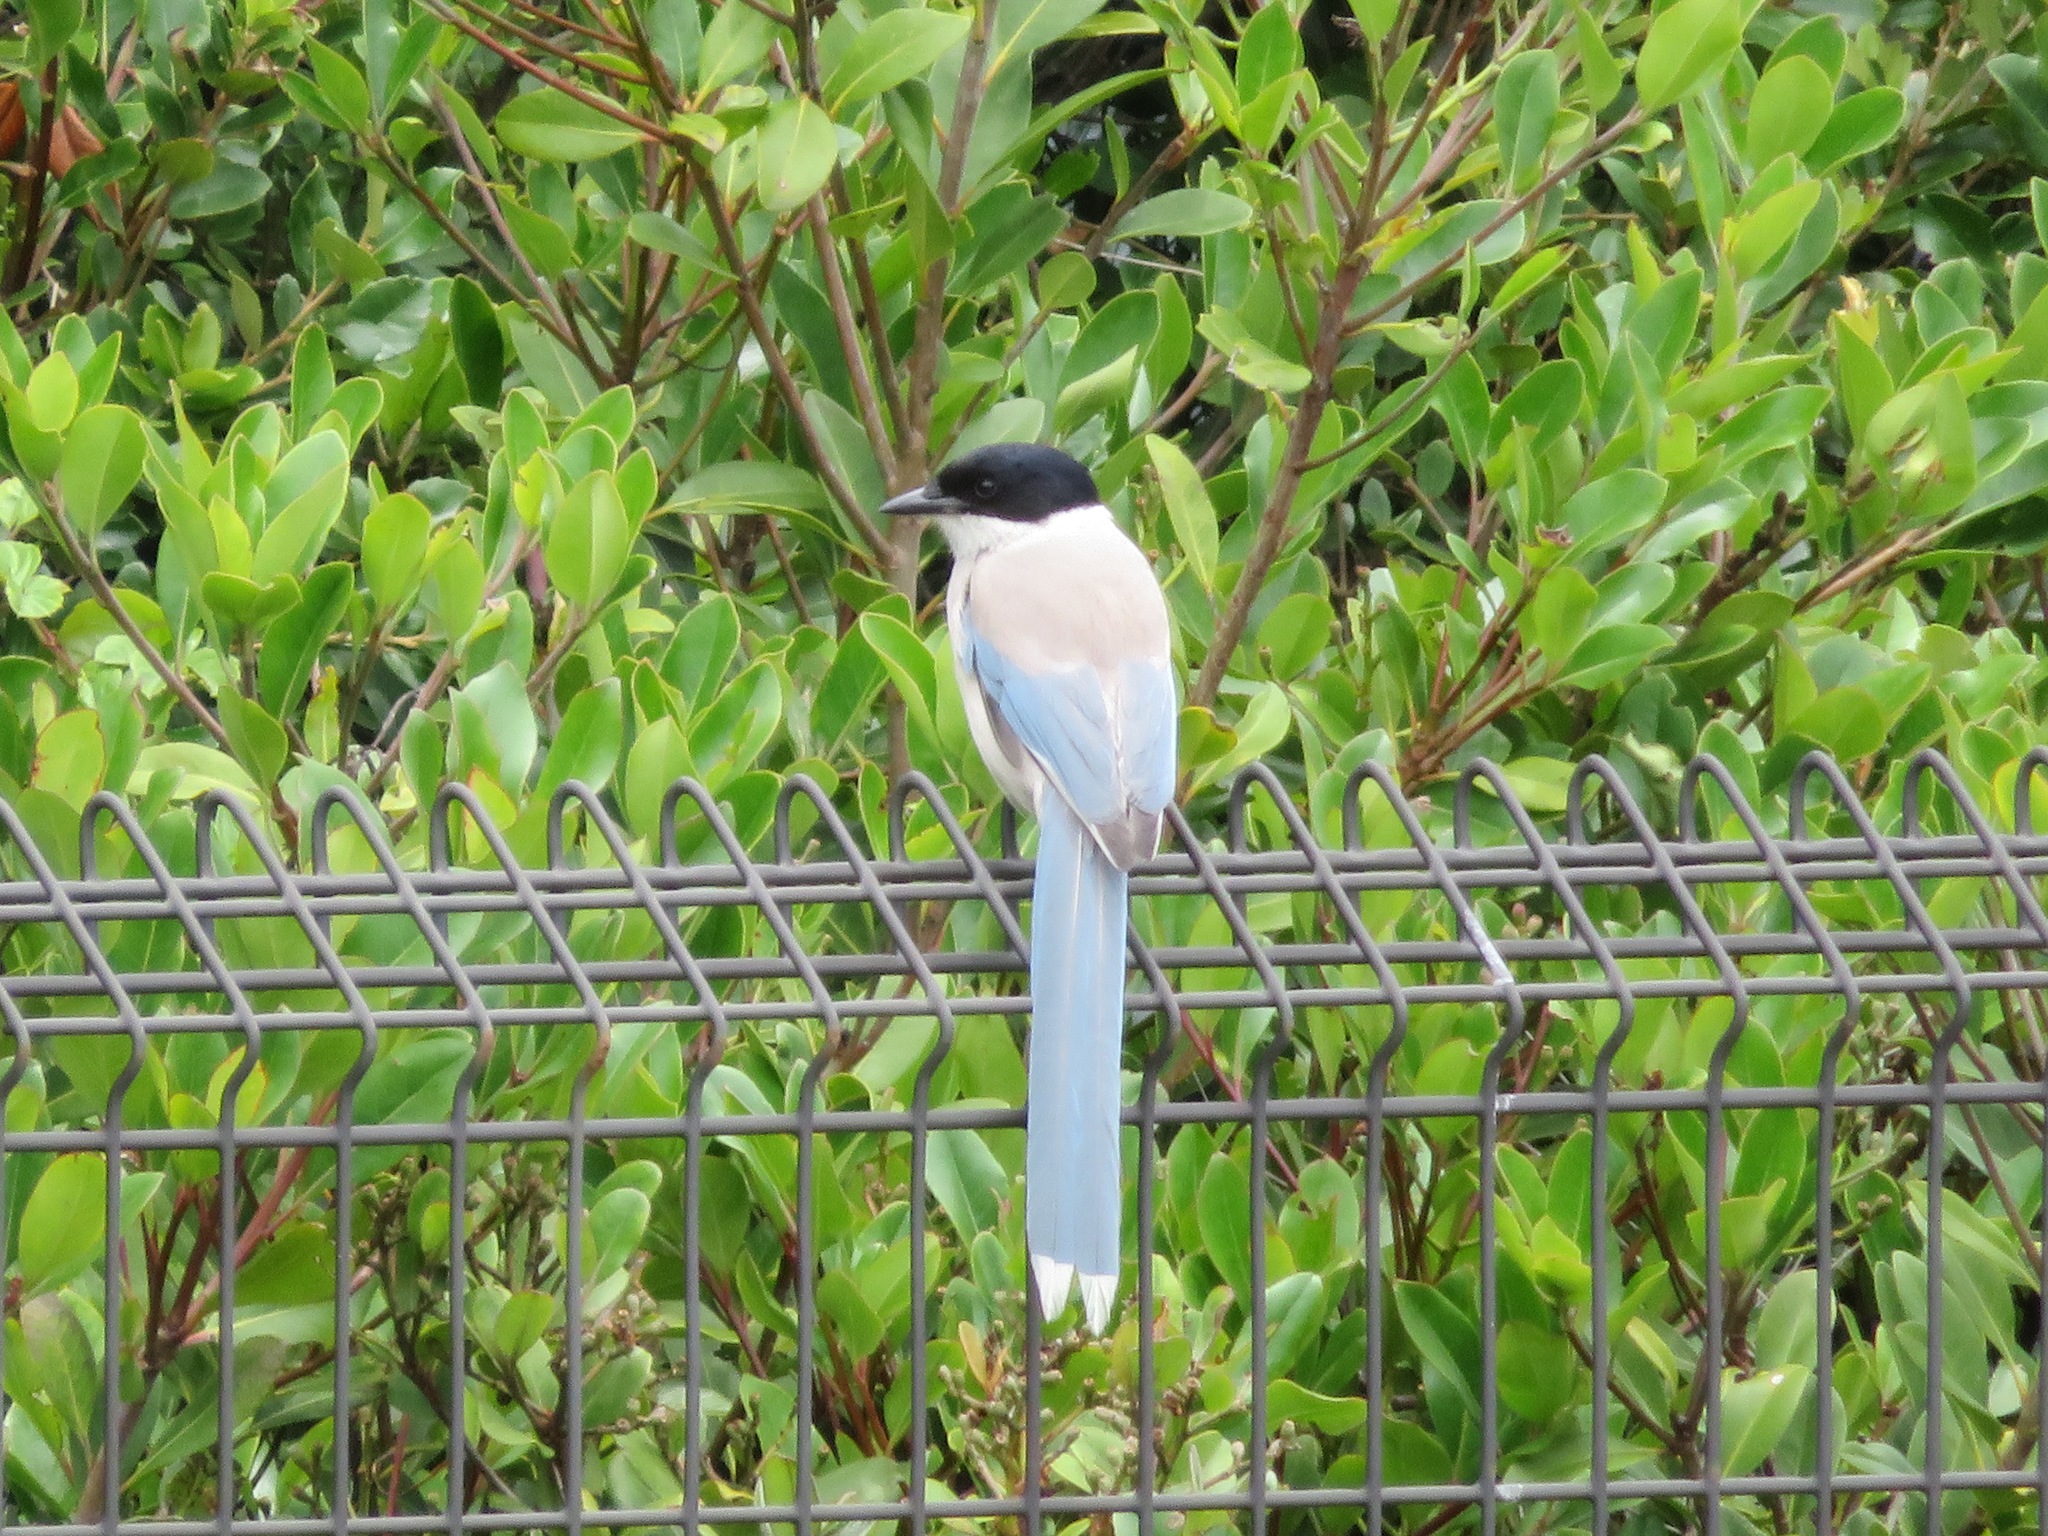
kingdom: Animalia
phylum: Chordata
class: Aves
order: Passeriformes
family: Corvidae
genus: Cyanopica
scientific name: Cyanopica cyanus
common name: Azure-winged magpie
